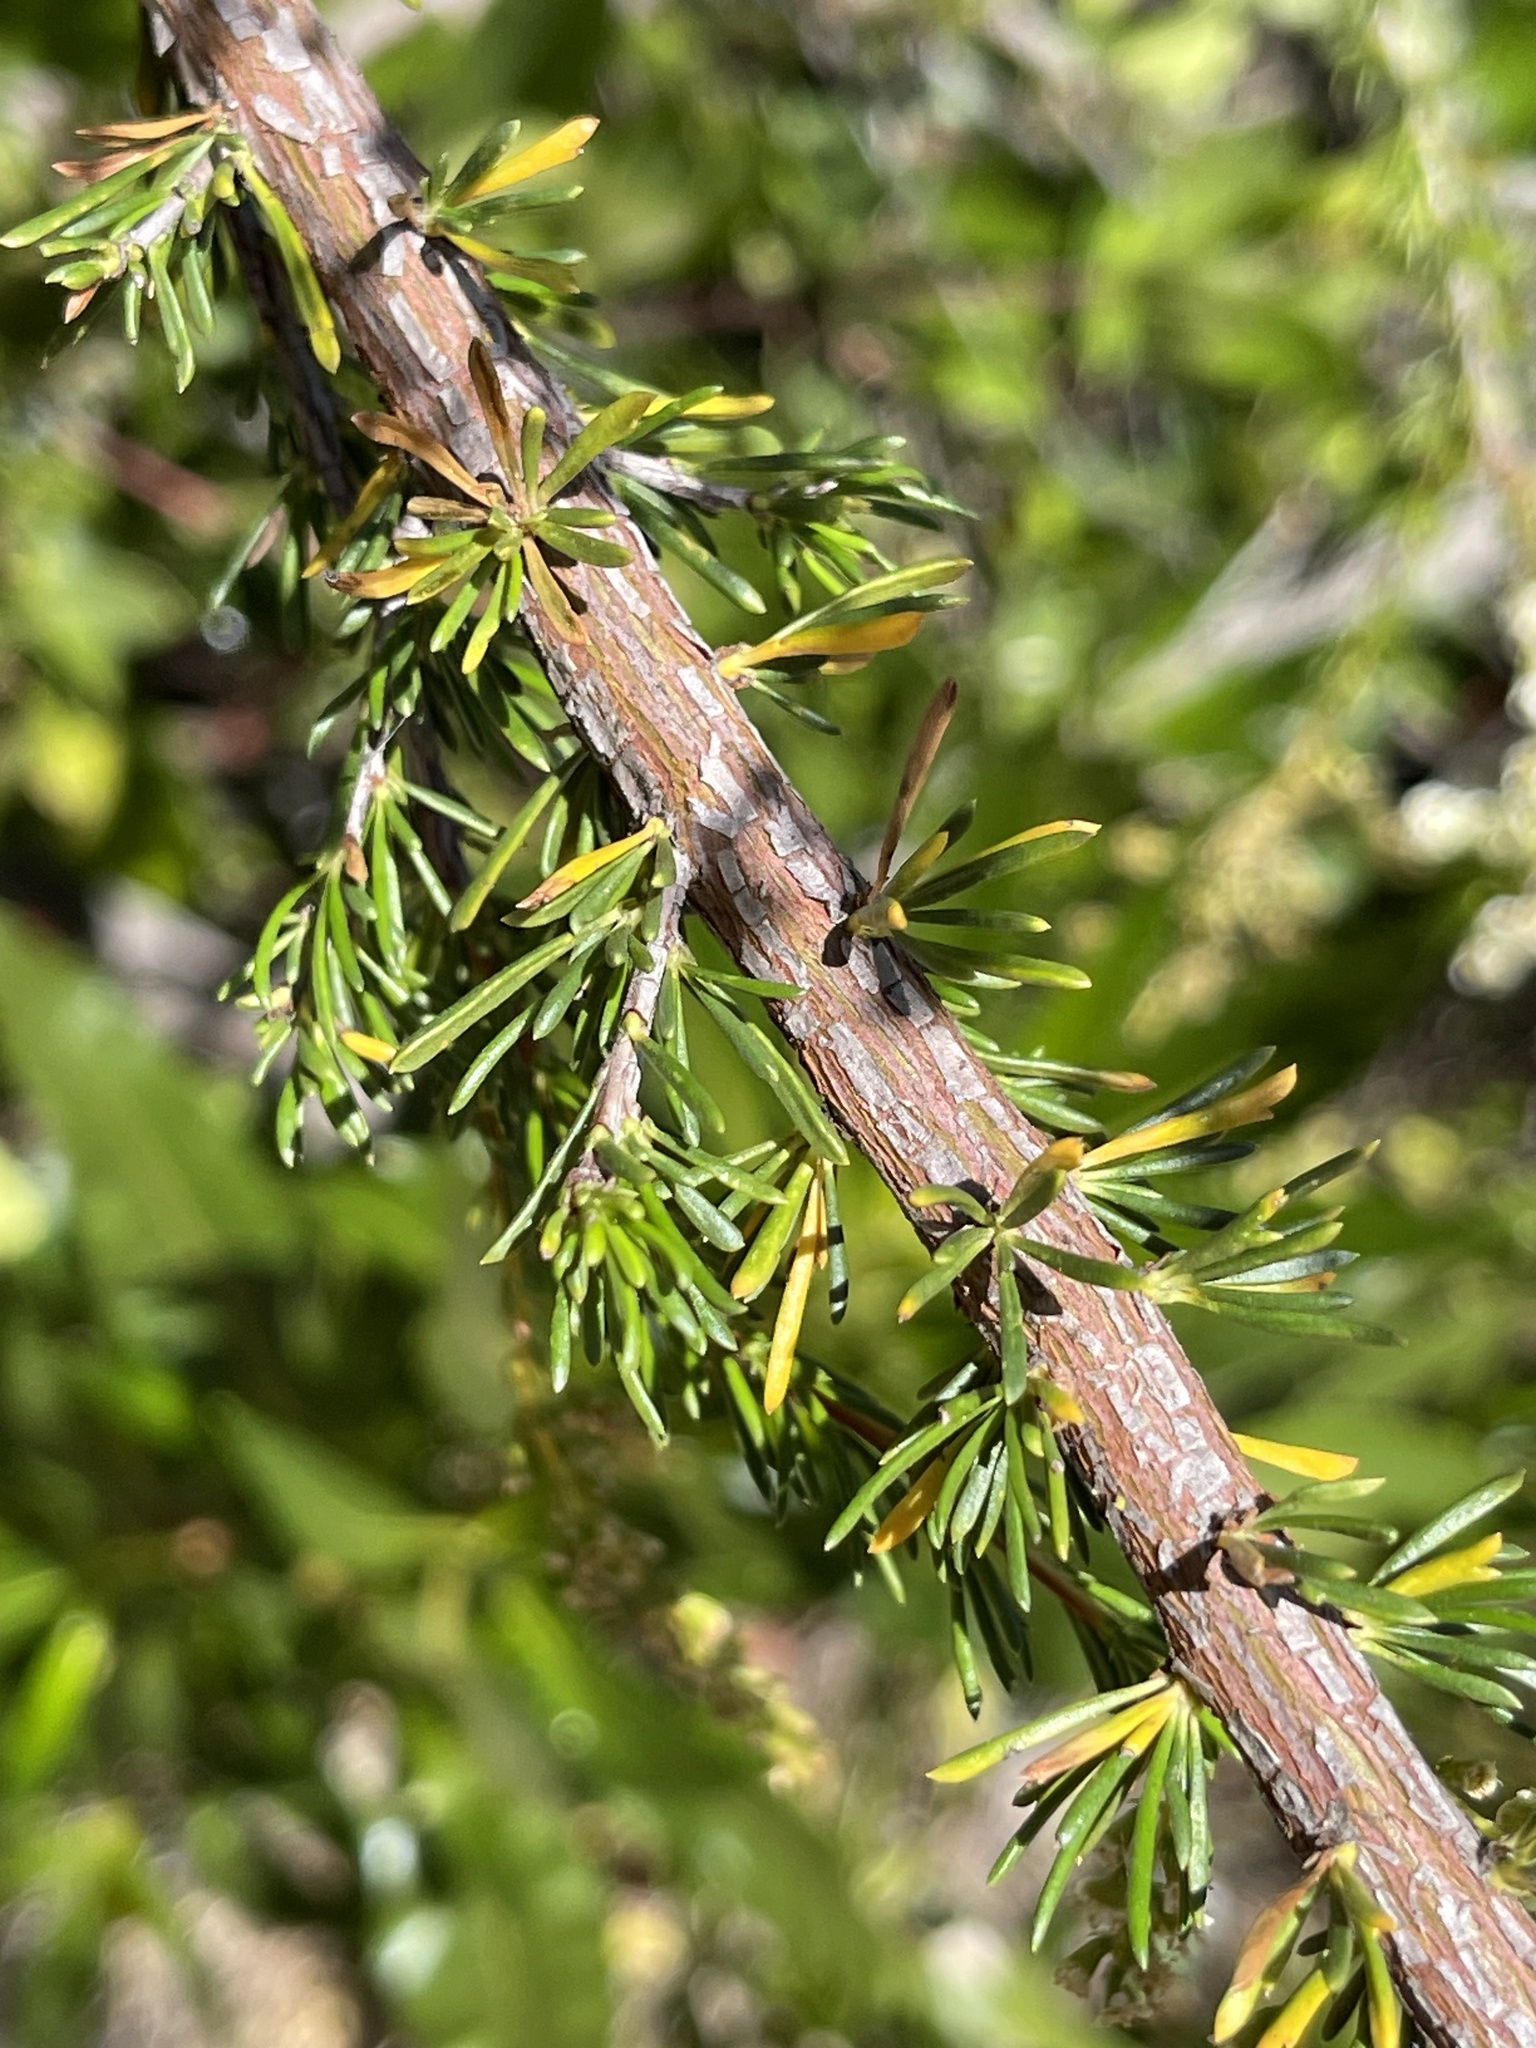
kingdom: Plantae
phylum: Tracheophyta
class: Magnoliopsida
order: Rosales
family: Rosaceae
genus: Adenostoma
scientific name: Adenostoma fasciculatum
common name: Chamise
